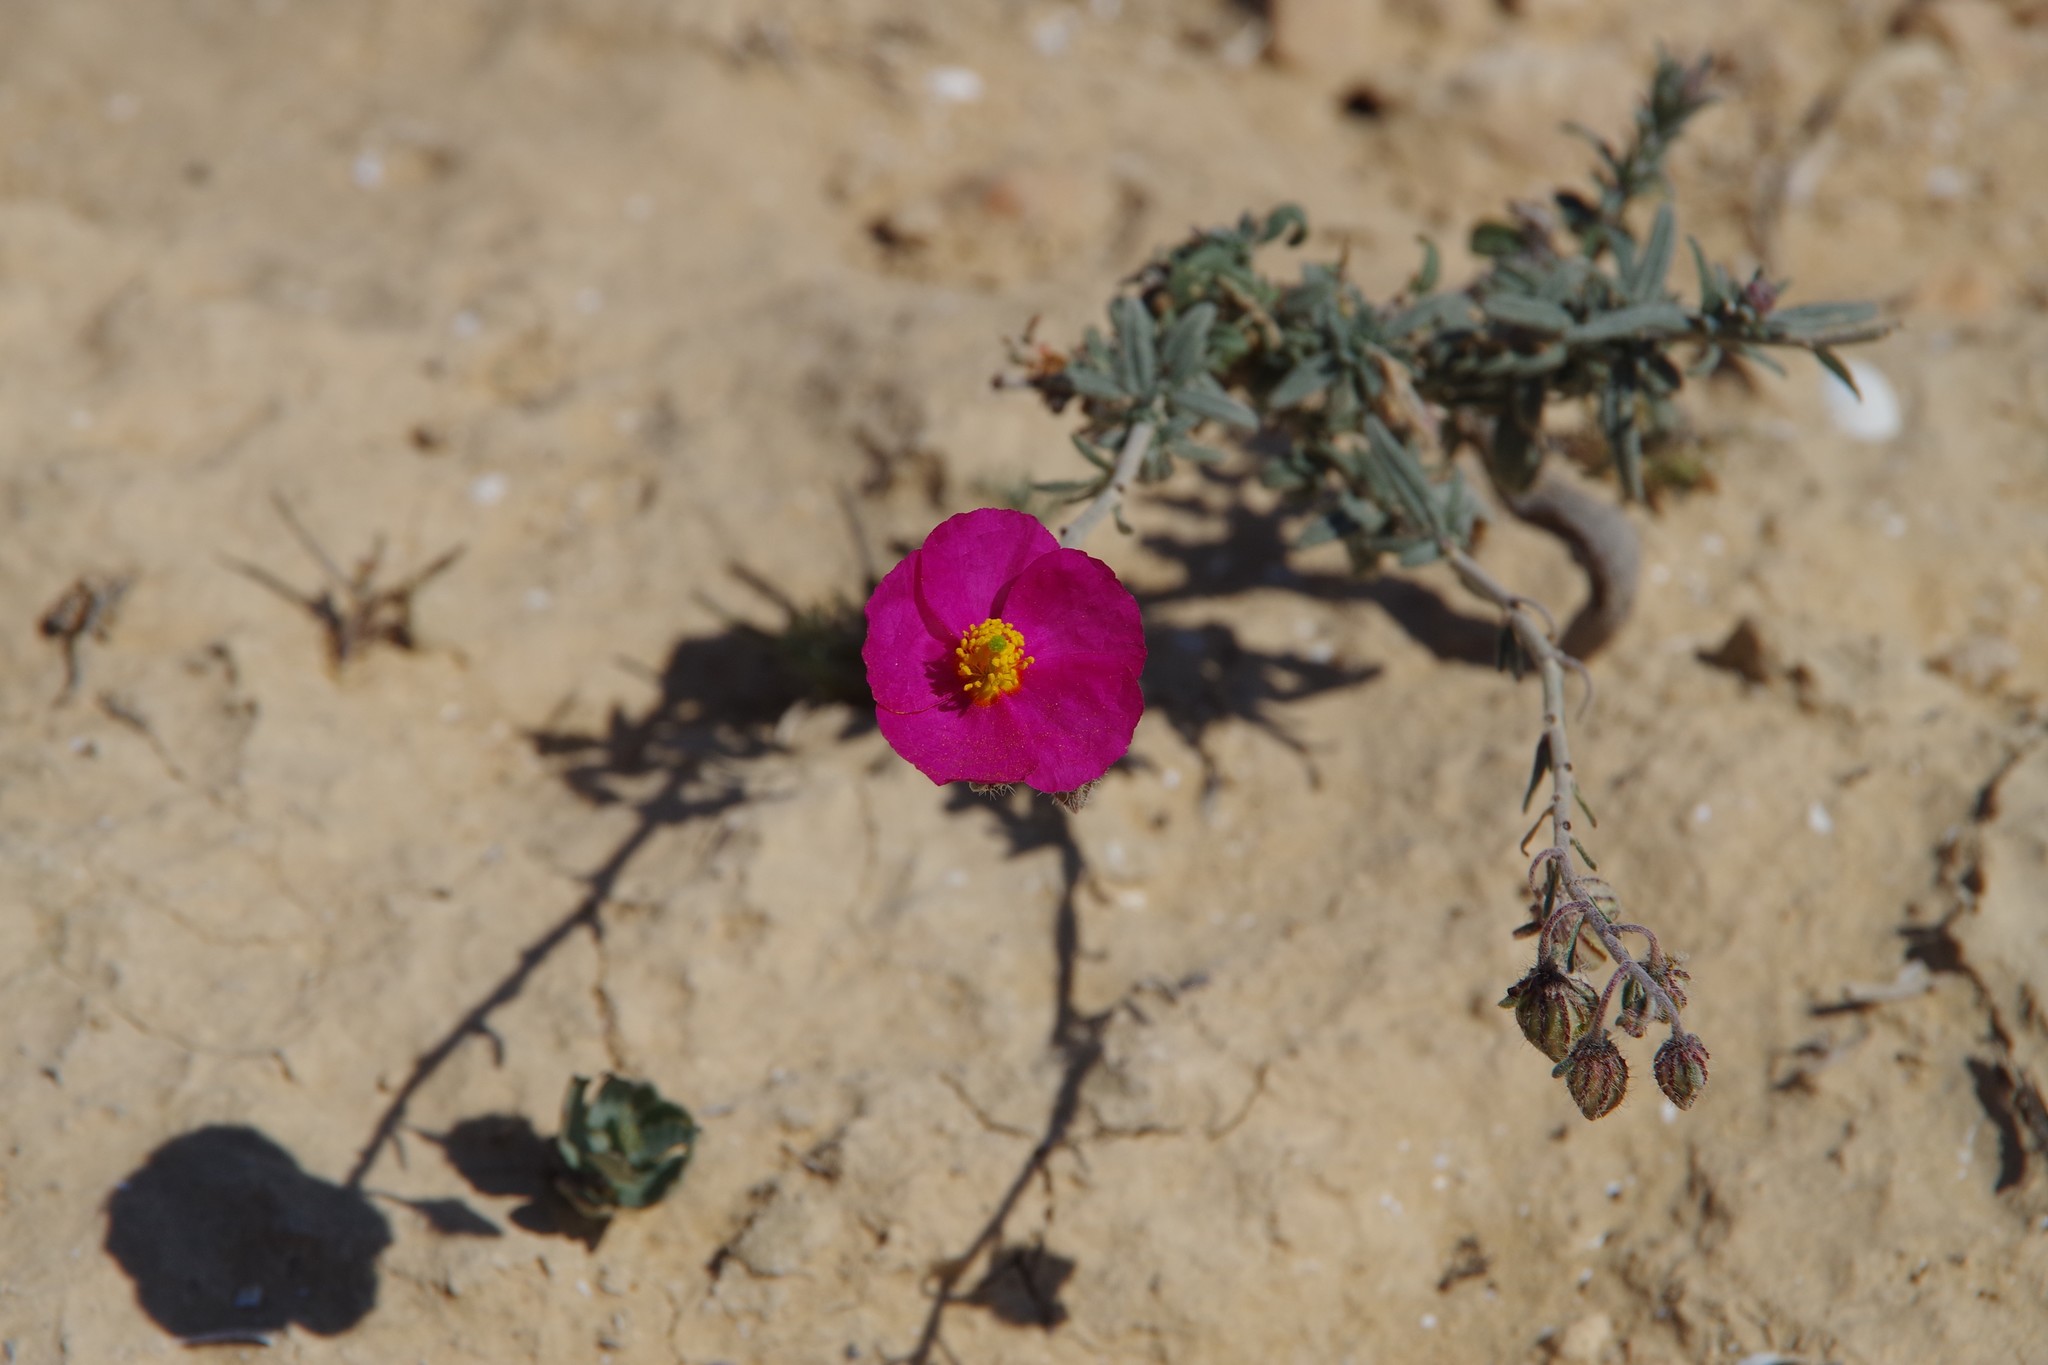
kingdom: Plantae
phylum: Tracheophyta
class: Magnoliopsida
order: Malvales
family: Cistaceae
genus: Helianthemum
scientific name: Helianthemum vesicarium
